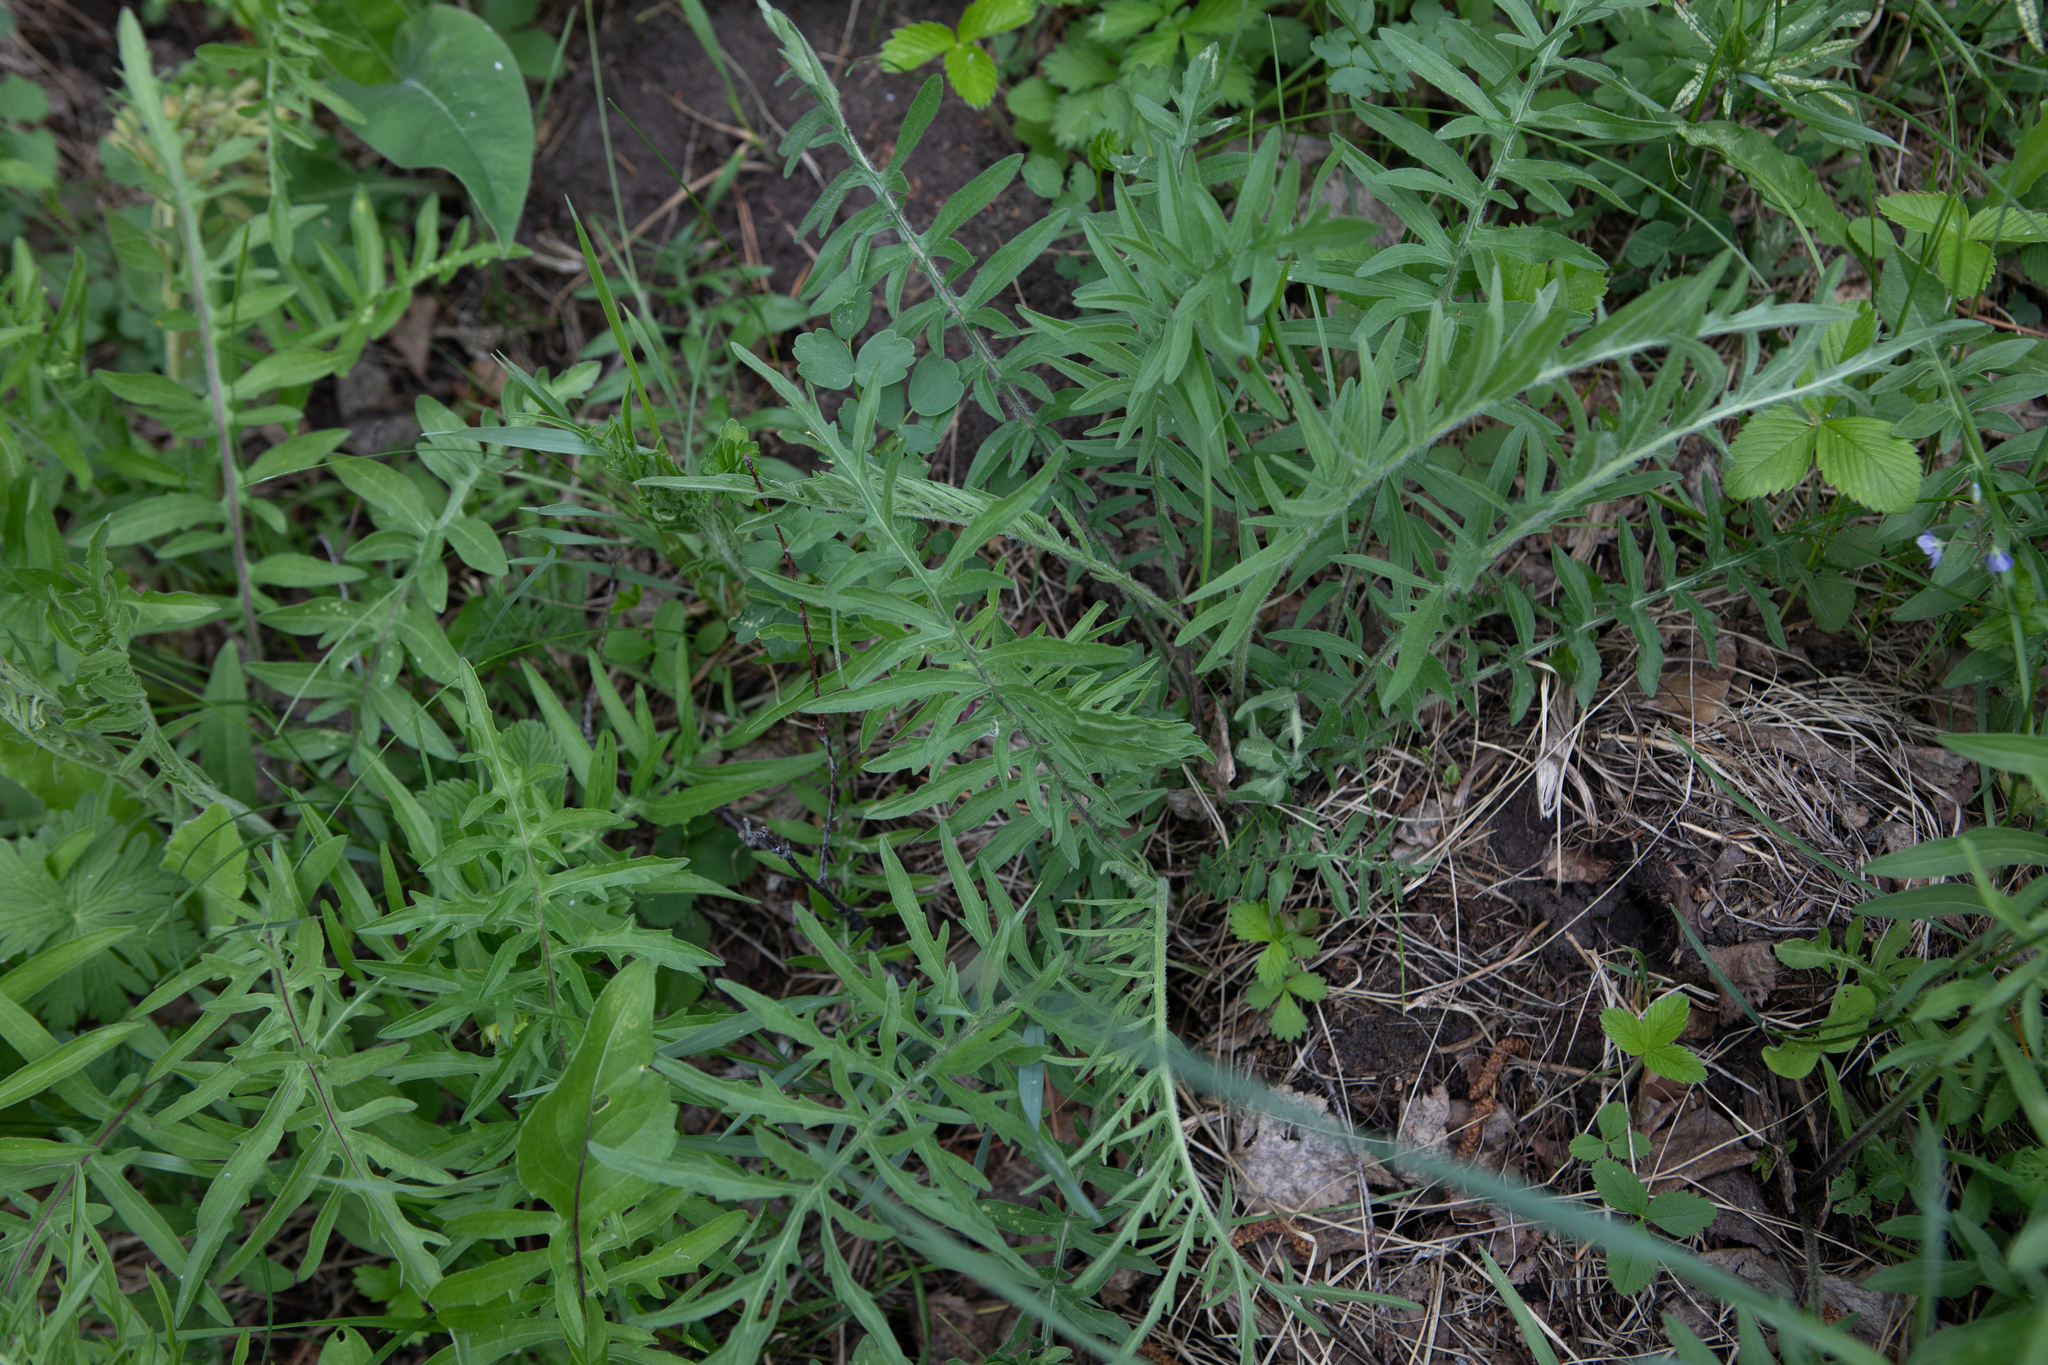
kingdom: Plantae
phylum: Tracheophyta
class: Magnoliopsida
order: Asterales
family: Asteraceae
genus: Centaurea
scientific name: Centaurea scabiosa
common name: Greater knapweed
